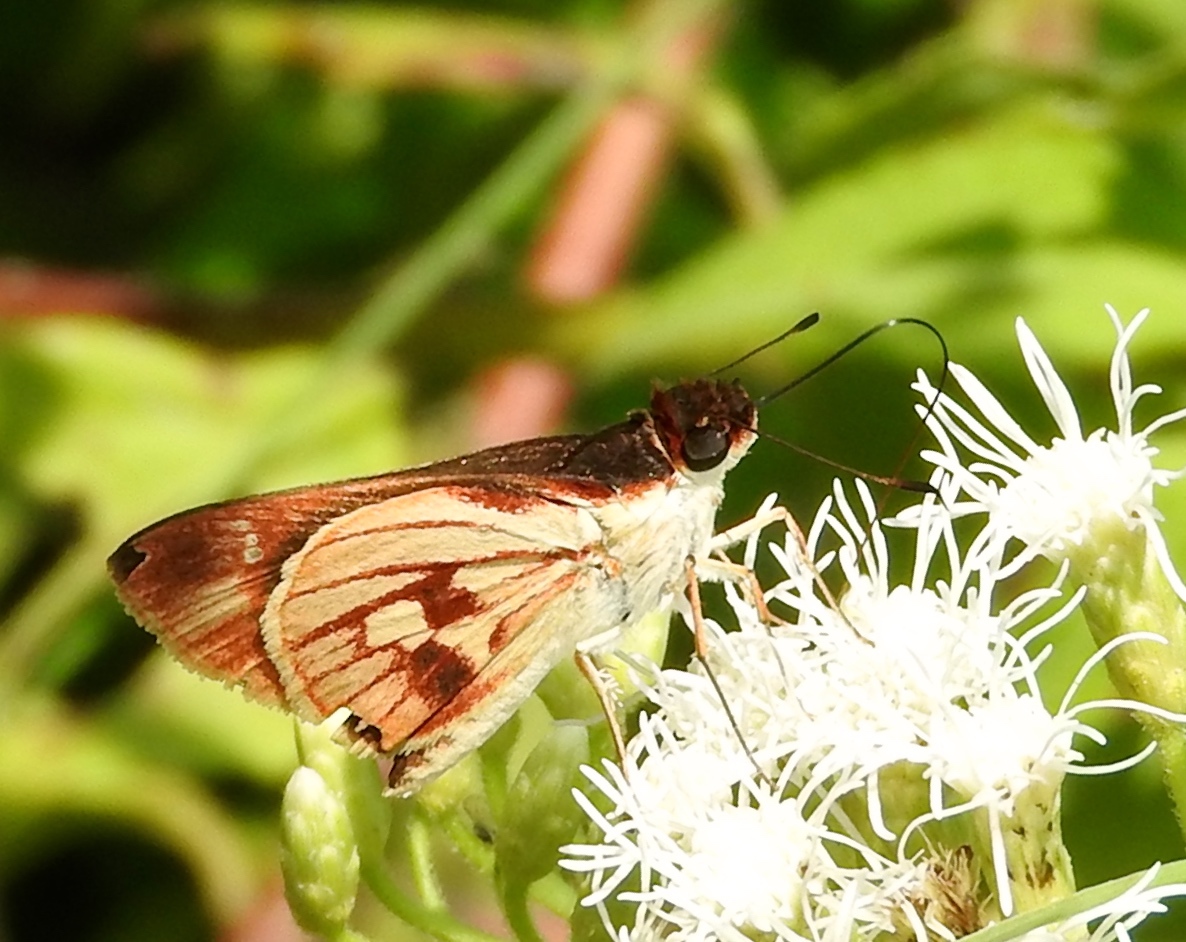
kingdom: Animalia
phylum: Arthropoda
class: Insecta
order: Lepidoptera
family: Hesperiidae
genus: Troyus
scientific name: Troyus fantasos
